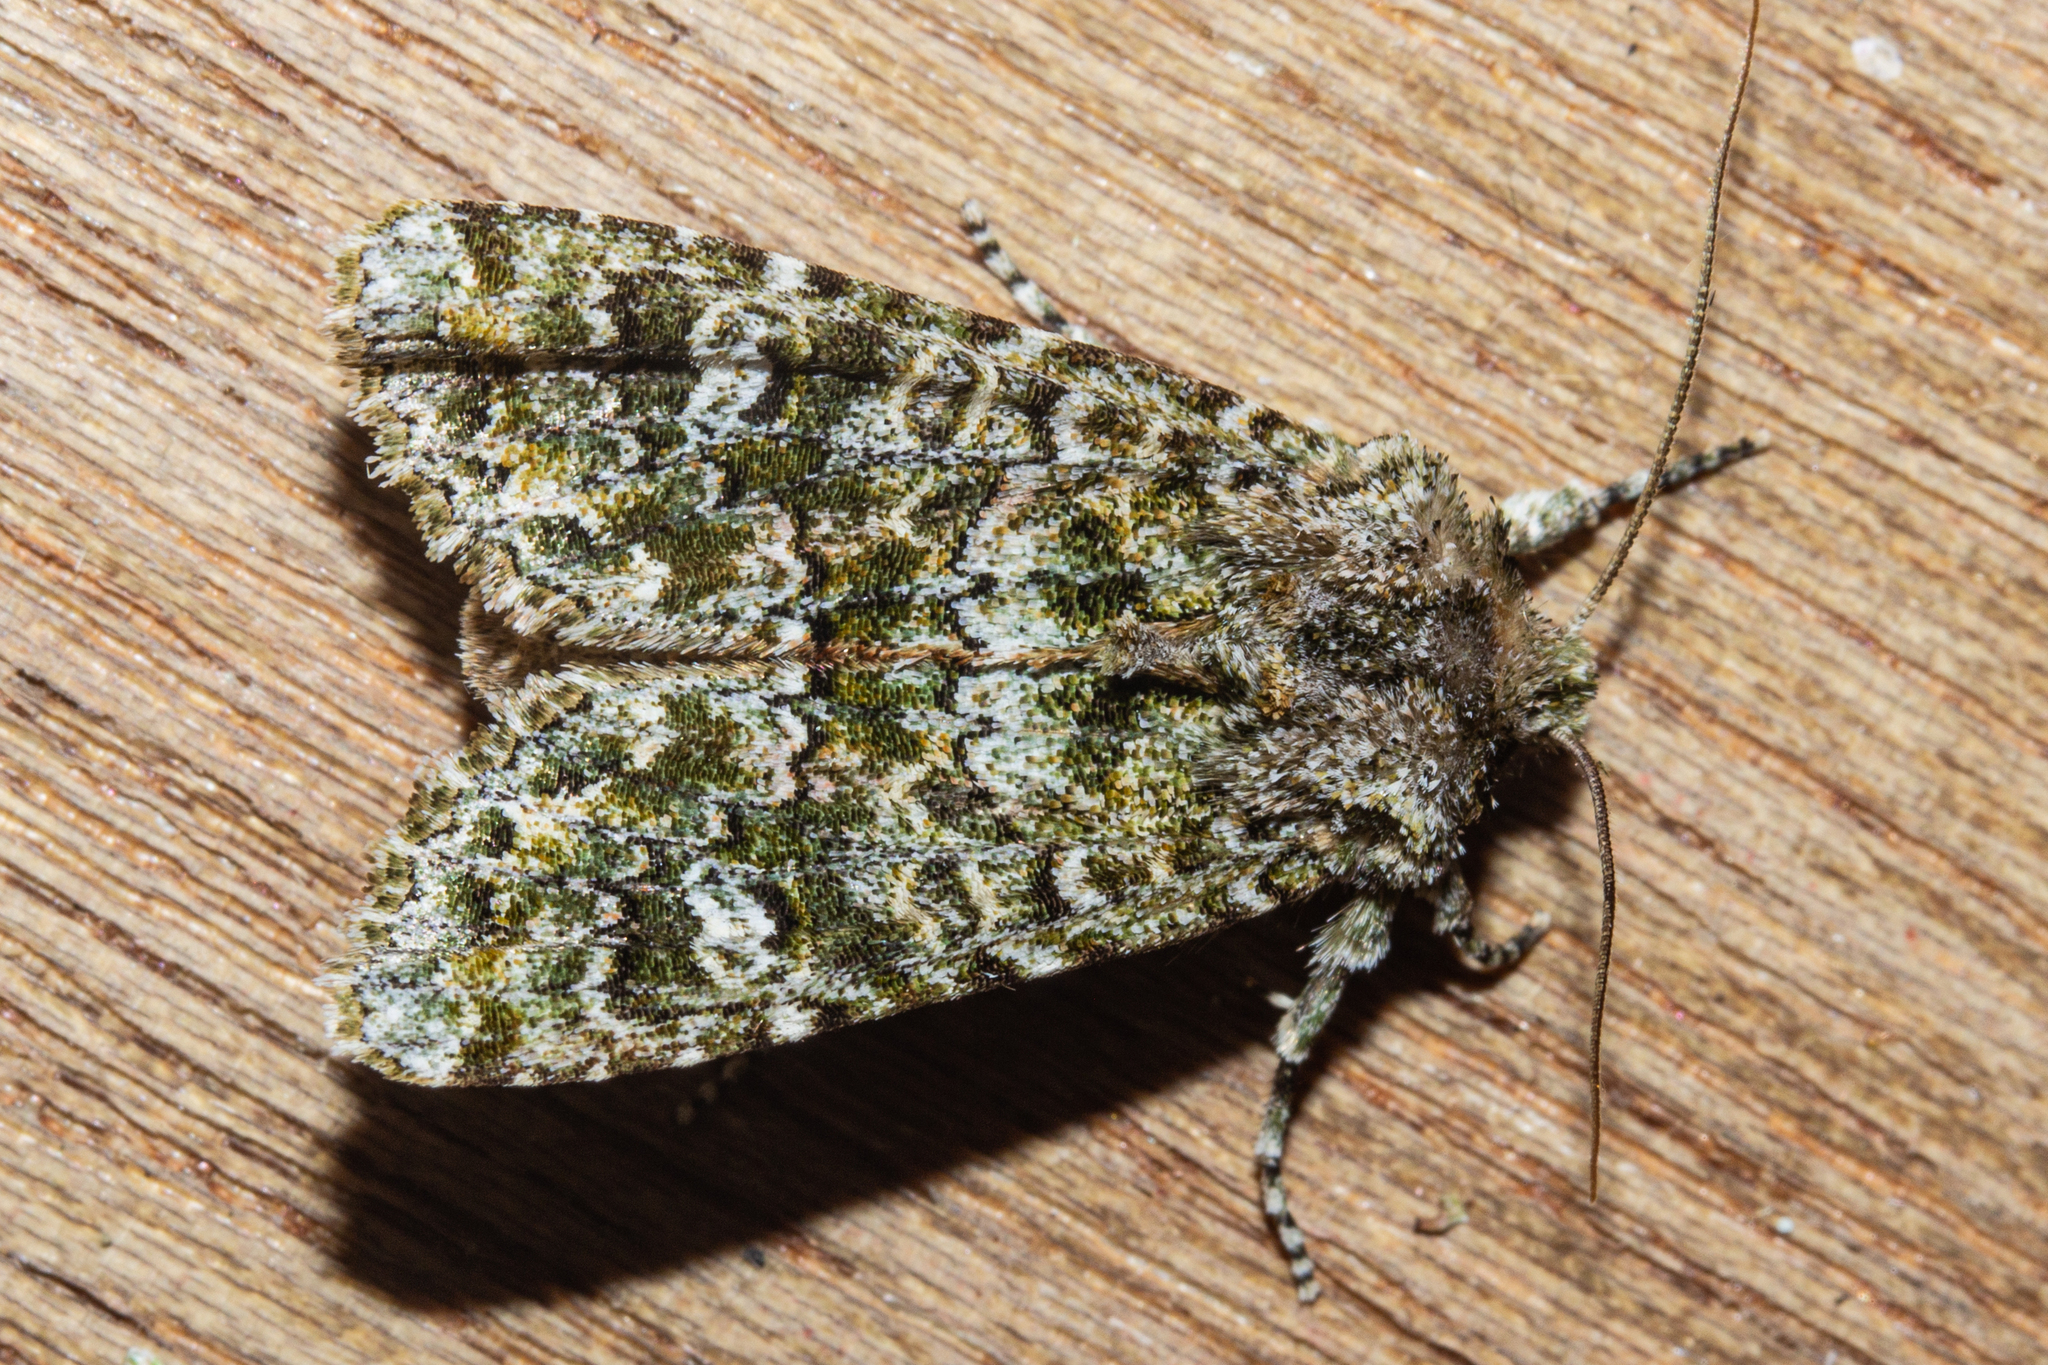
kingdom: Animalia
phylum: Arthropoda
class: Insecta
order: Lepidoptera
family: Noctuidae
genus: Ichneutica
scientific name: Ichneutica
